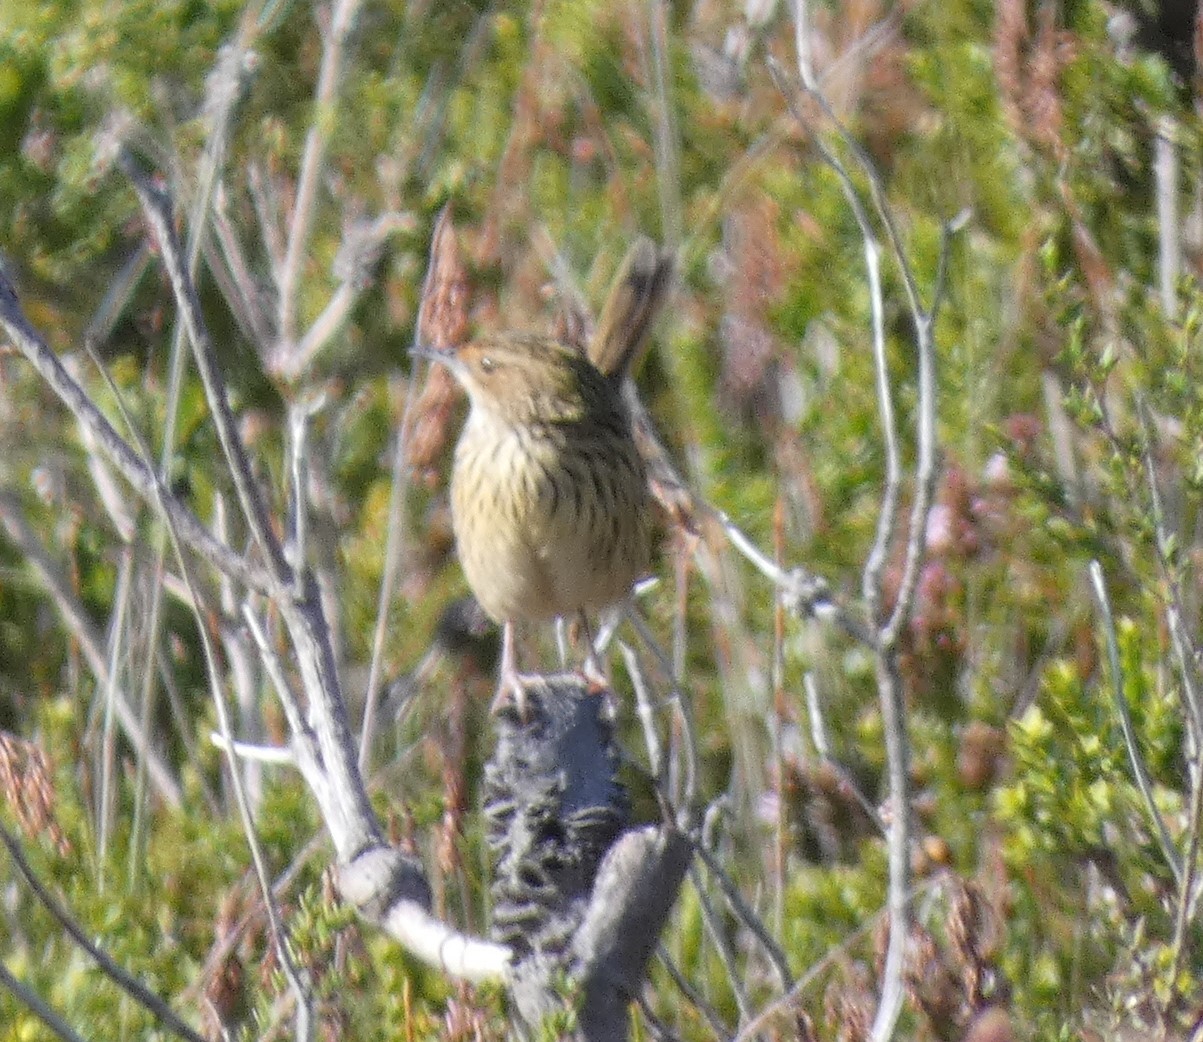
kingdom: Animalia
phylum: Chordata
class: Aves
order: Passeriformes
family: Acanthizidae
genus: Calamanthus
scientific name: Calamanthus fuliginosus
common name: Striated fieldwren
